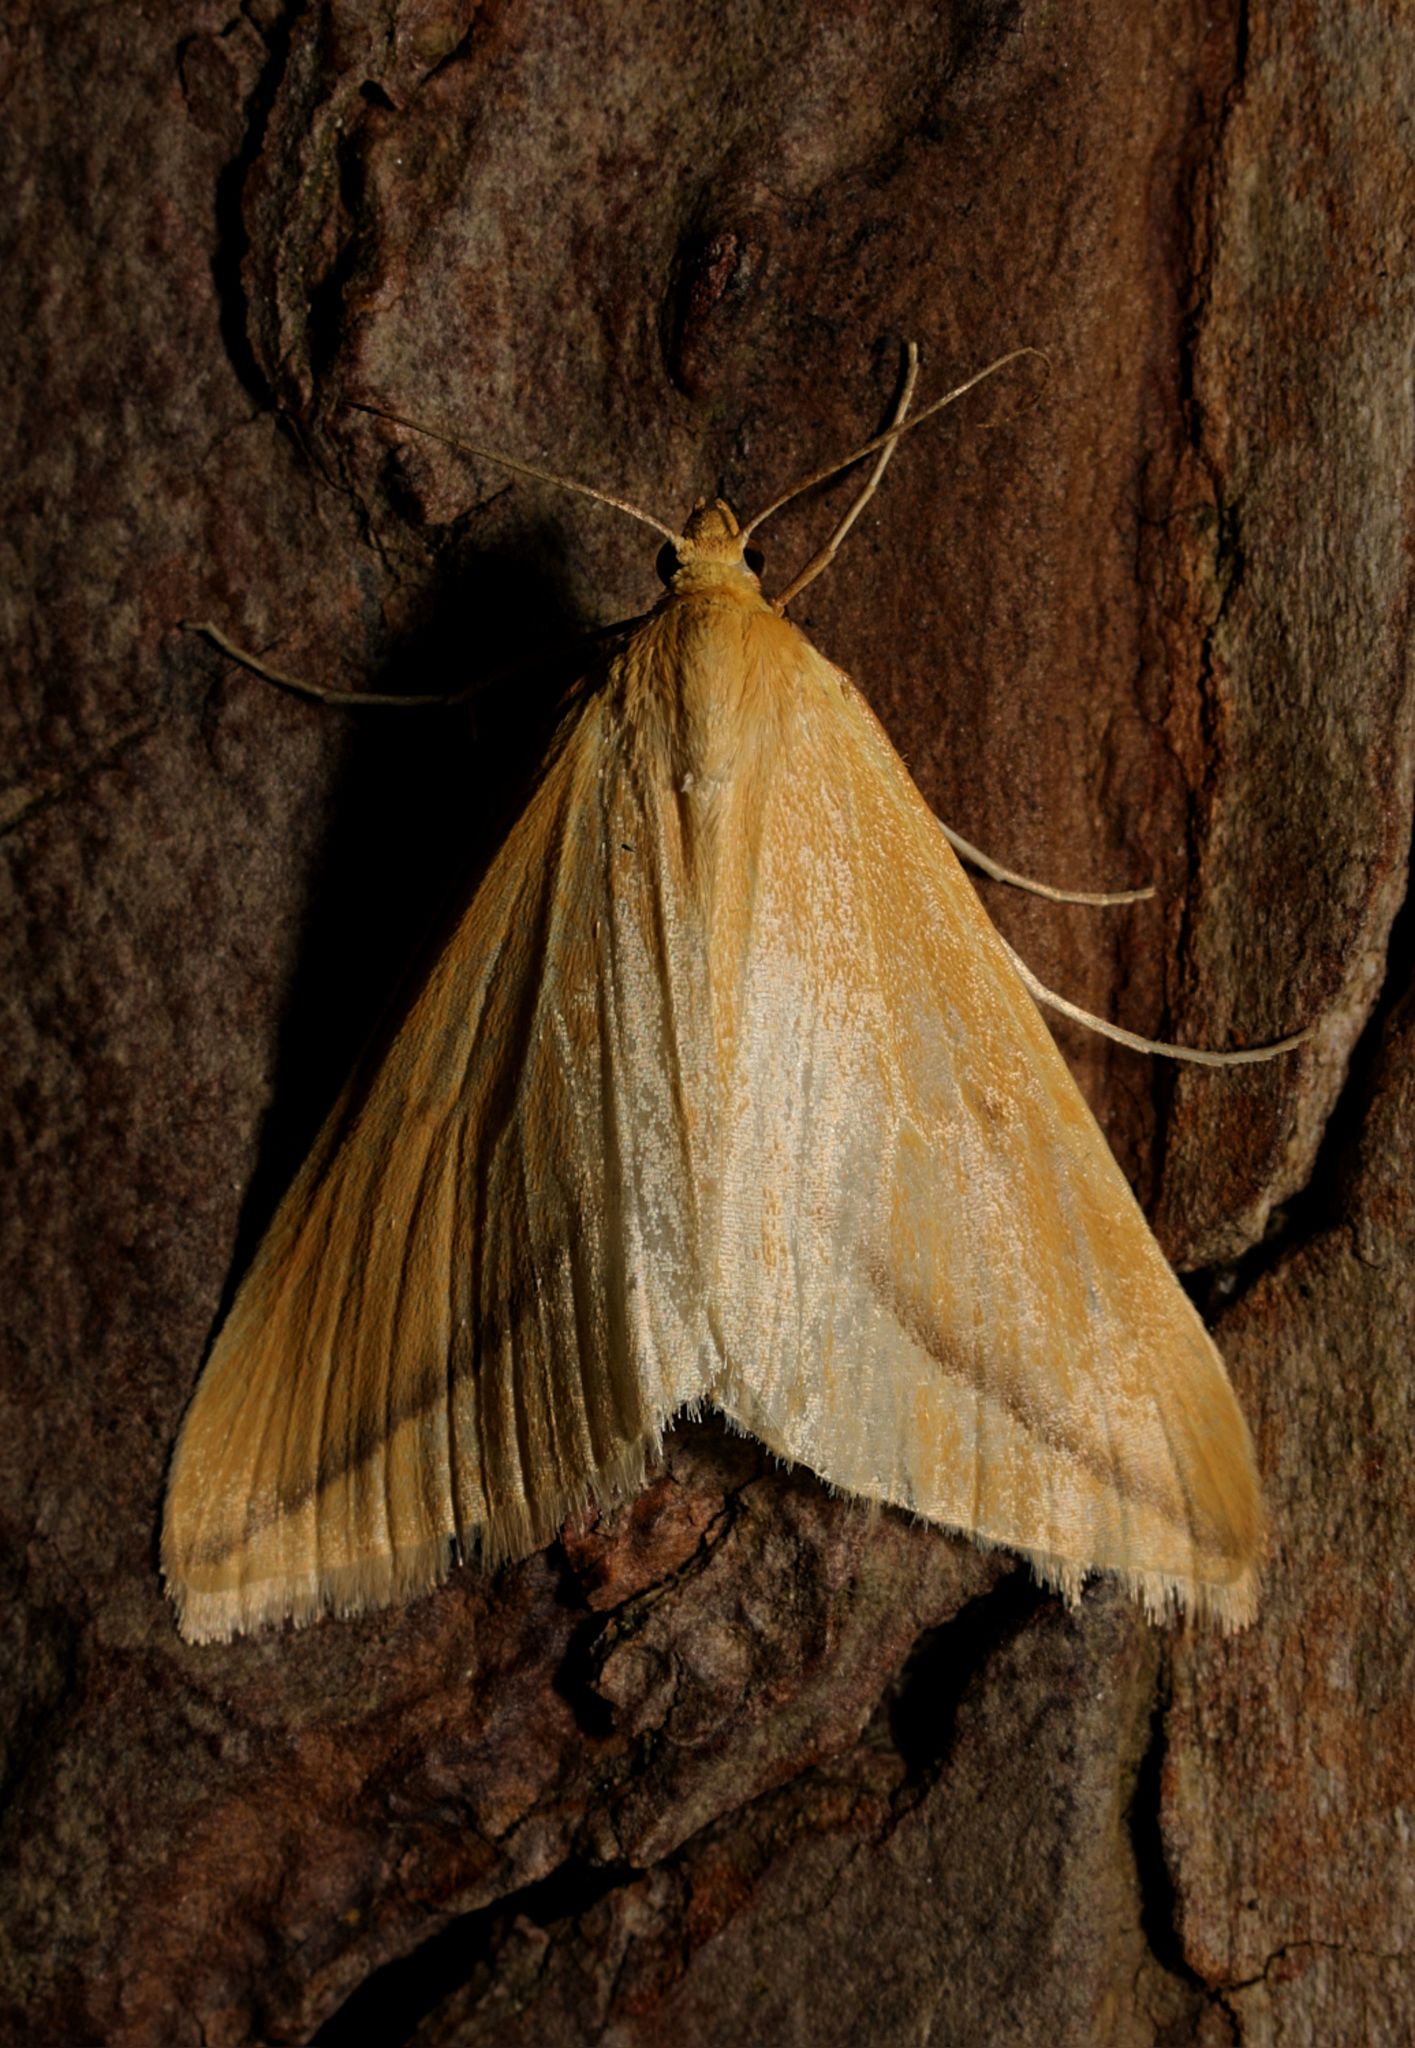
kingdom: Animalia
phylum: Arthropoda
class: Insecta
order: Lepidoptera
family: Geometridae
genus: Rhodometra
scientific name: Rhodometra sacraria
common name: Vestal
